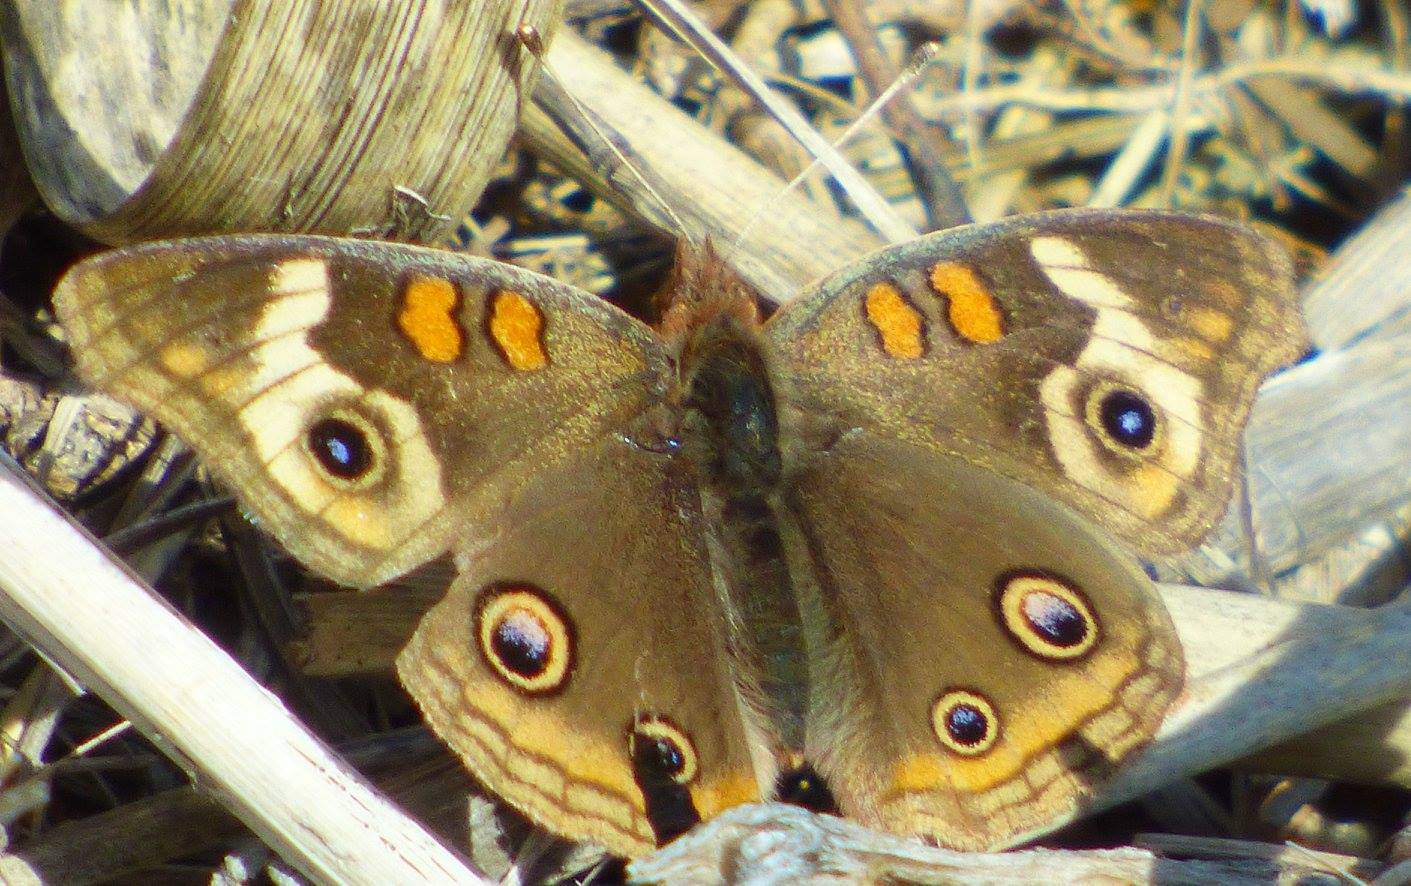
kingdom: Animalia
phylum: Arthropoda
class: Insecta
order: Lepidoptera
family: Nymphalidae
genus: Junonia
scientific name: Junonia coenia
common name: Common buckeye
